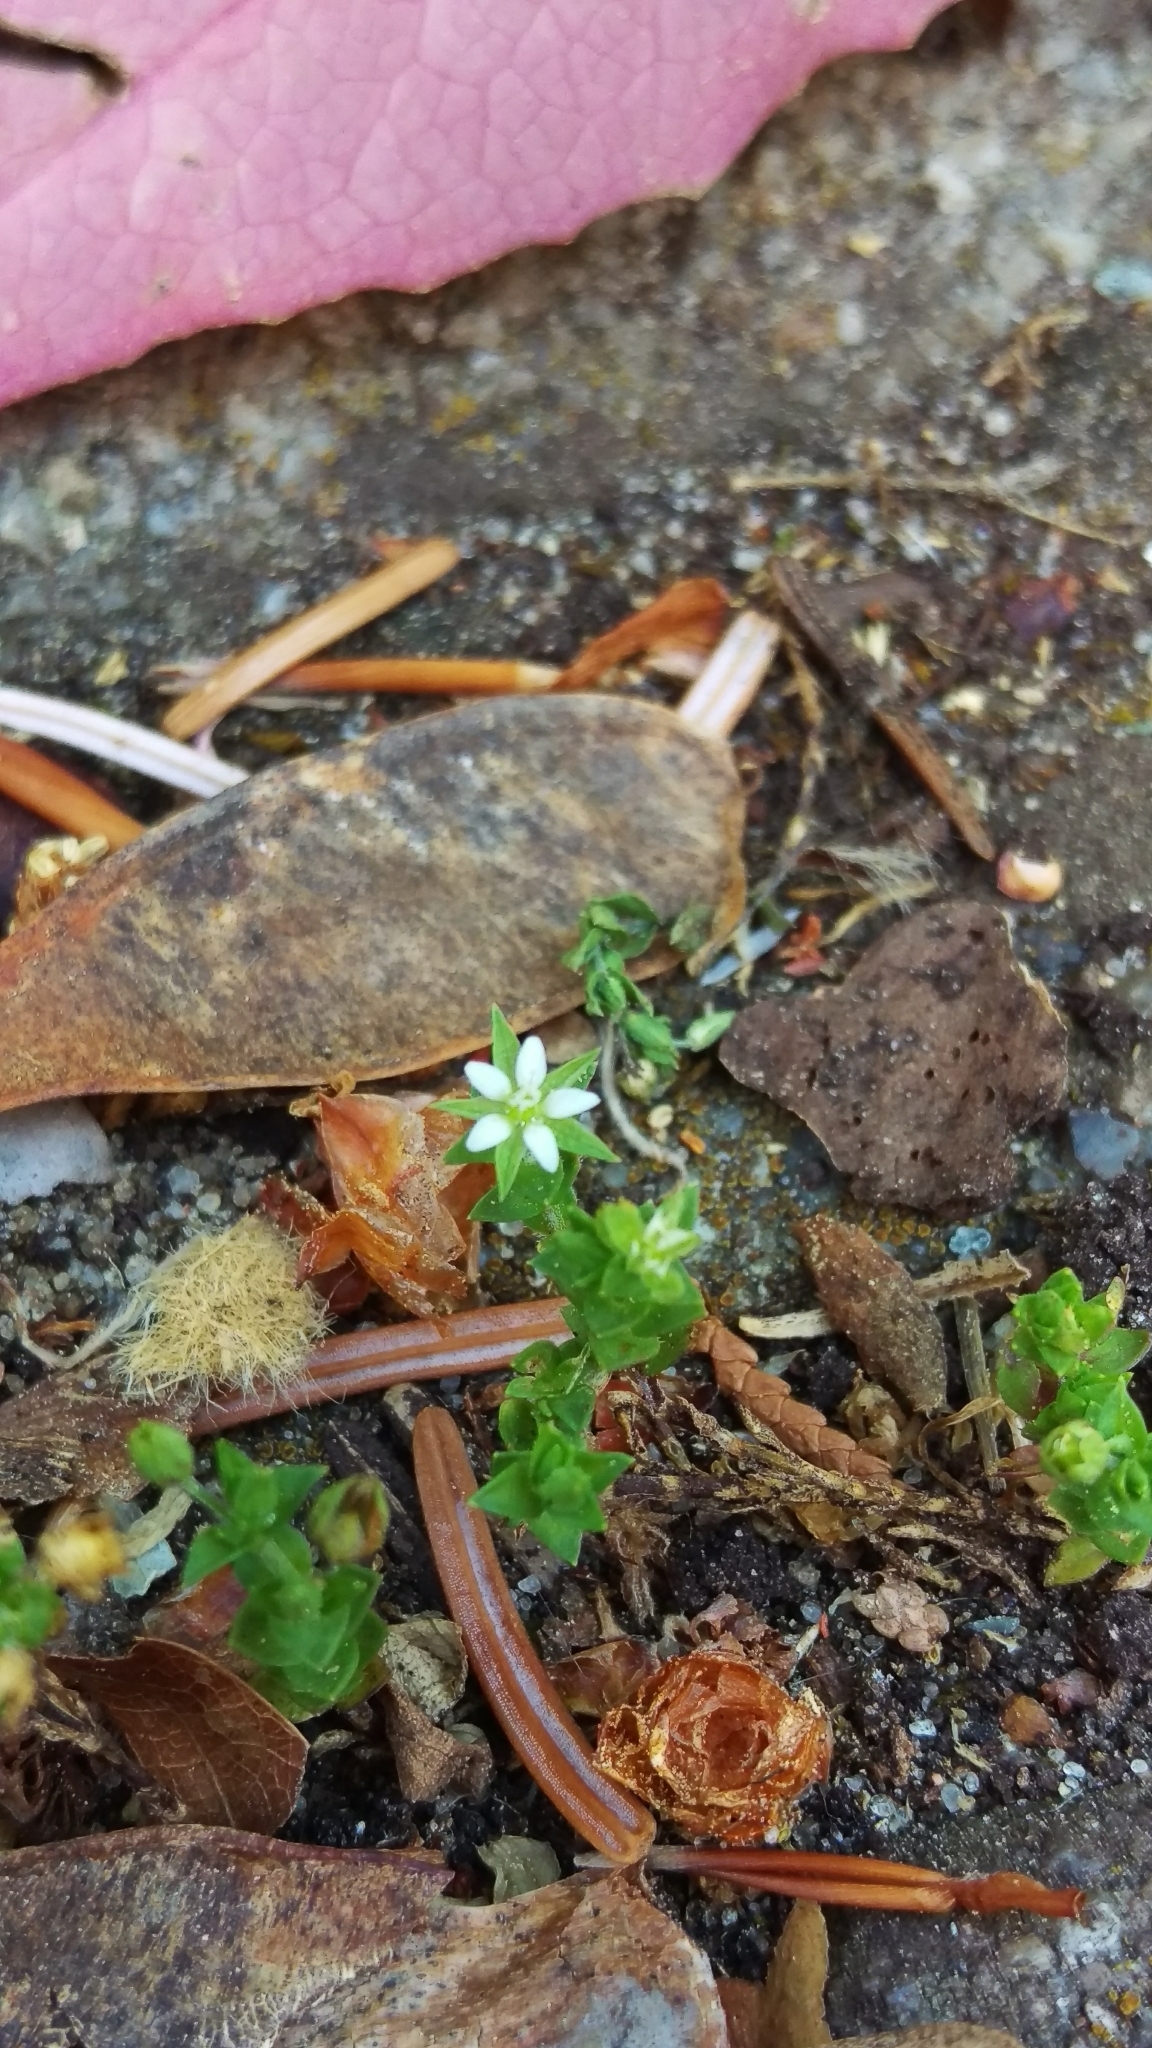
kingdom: Plantae
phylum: Tracheophyta
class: Magnoliopsida
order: Caryophyllales
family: Caryophyllaceae
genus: Arenaria
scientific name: Arenaria serpyllifolia
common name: Thyme-leaved sandwort
